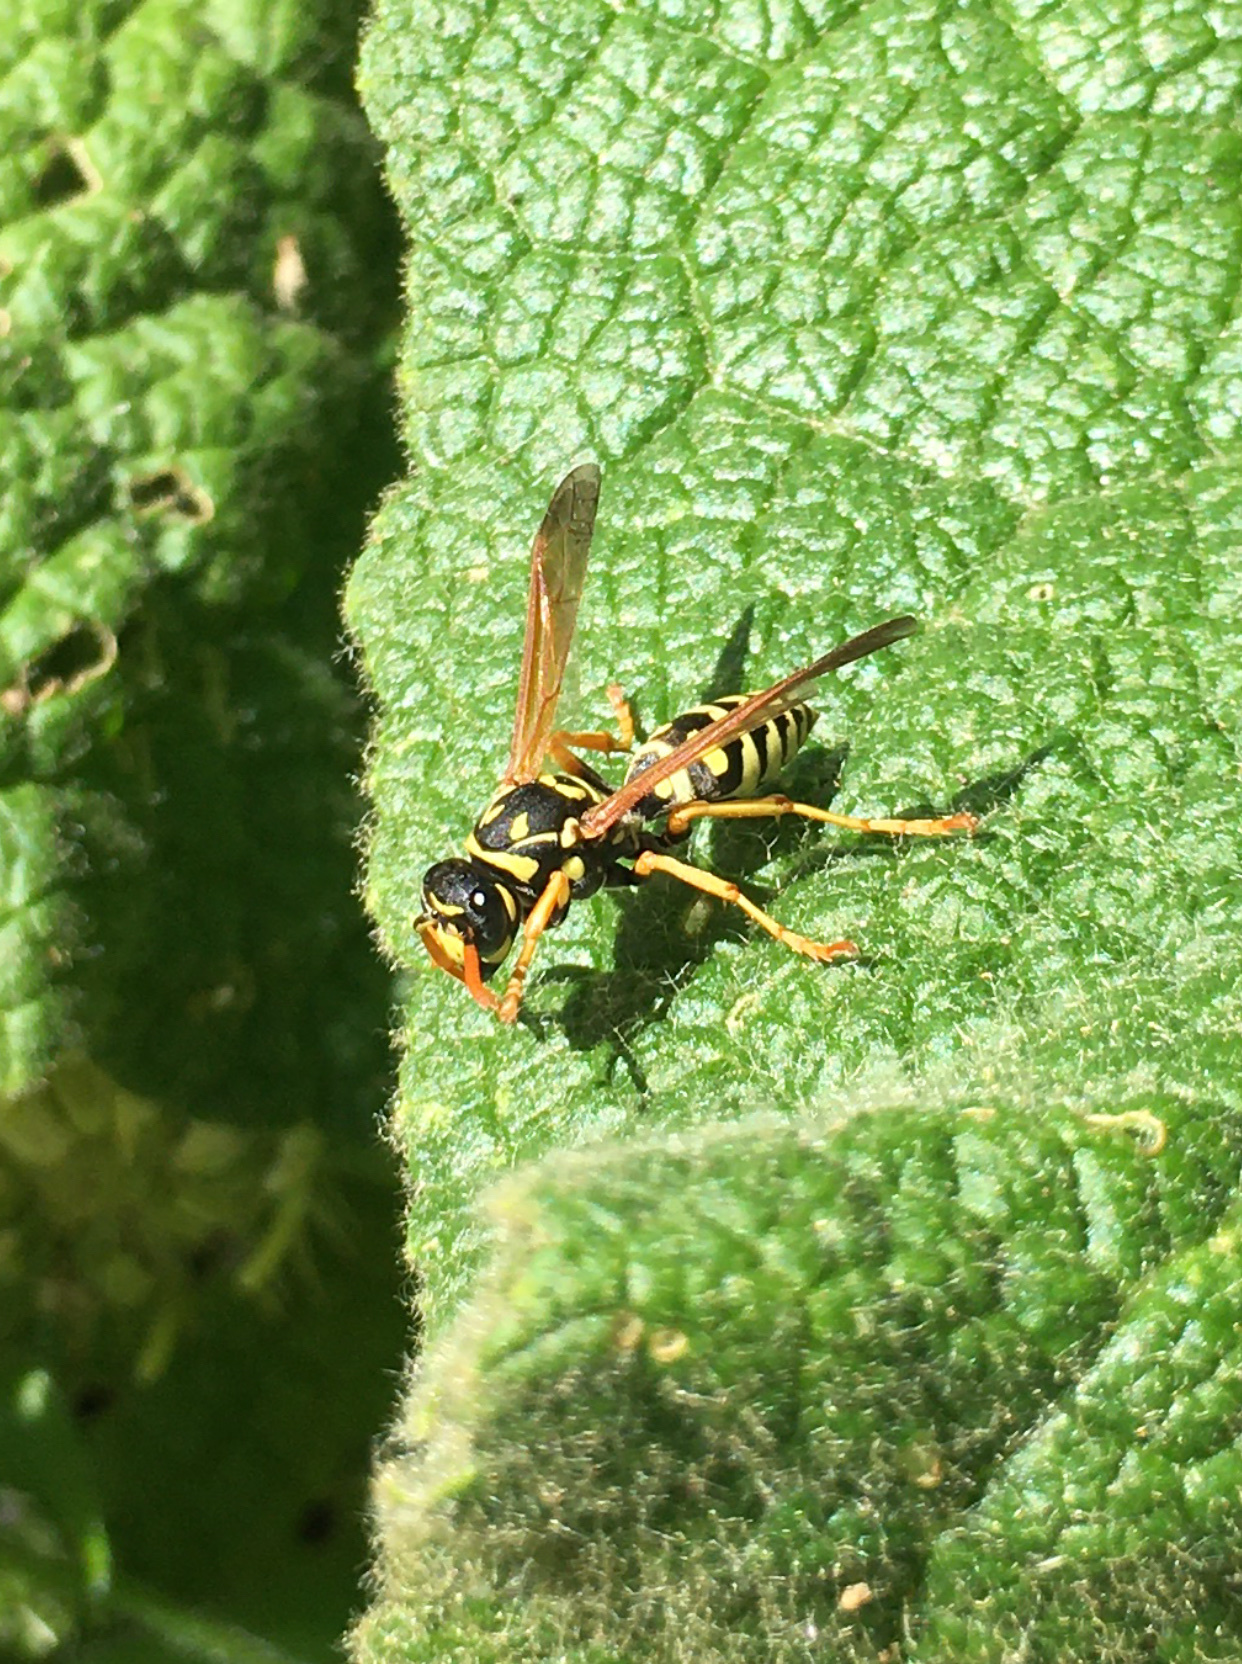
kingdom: Animalia
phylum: Arthropoda
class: Insecta
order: Hymenoptera
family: Eumenidae
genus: Polistes
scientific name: Polistes dominula
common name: Paper wasp
